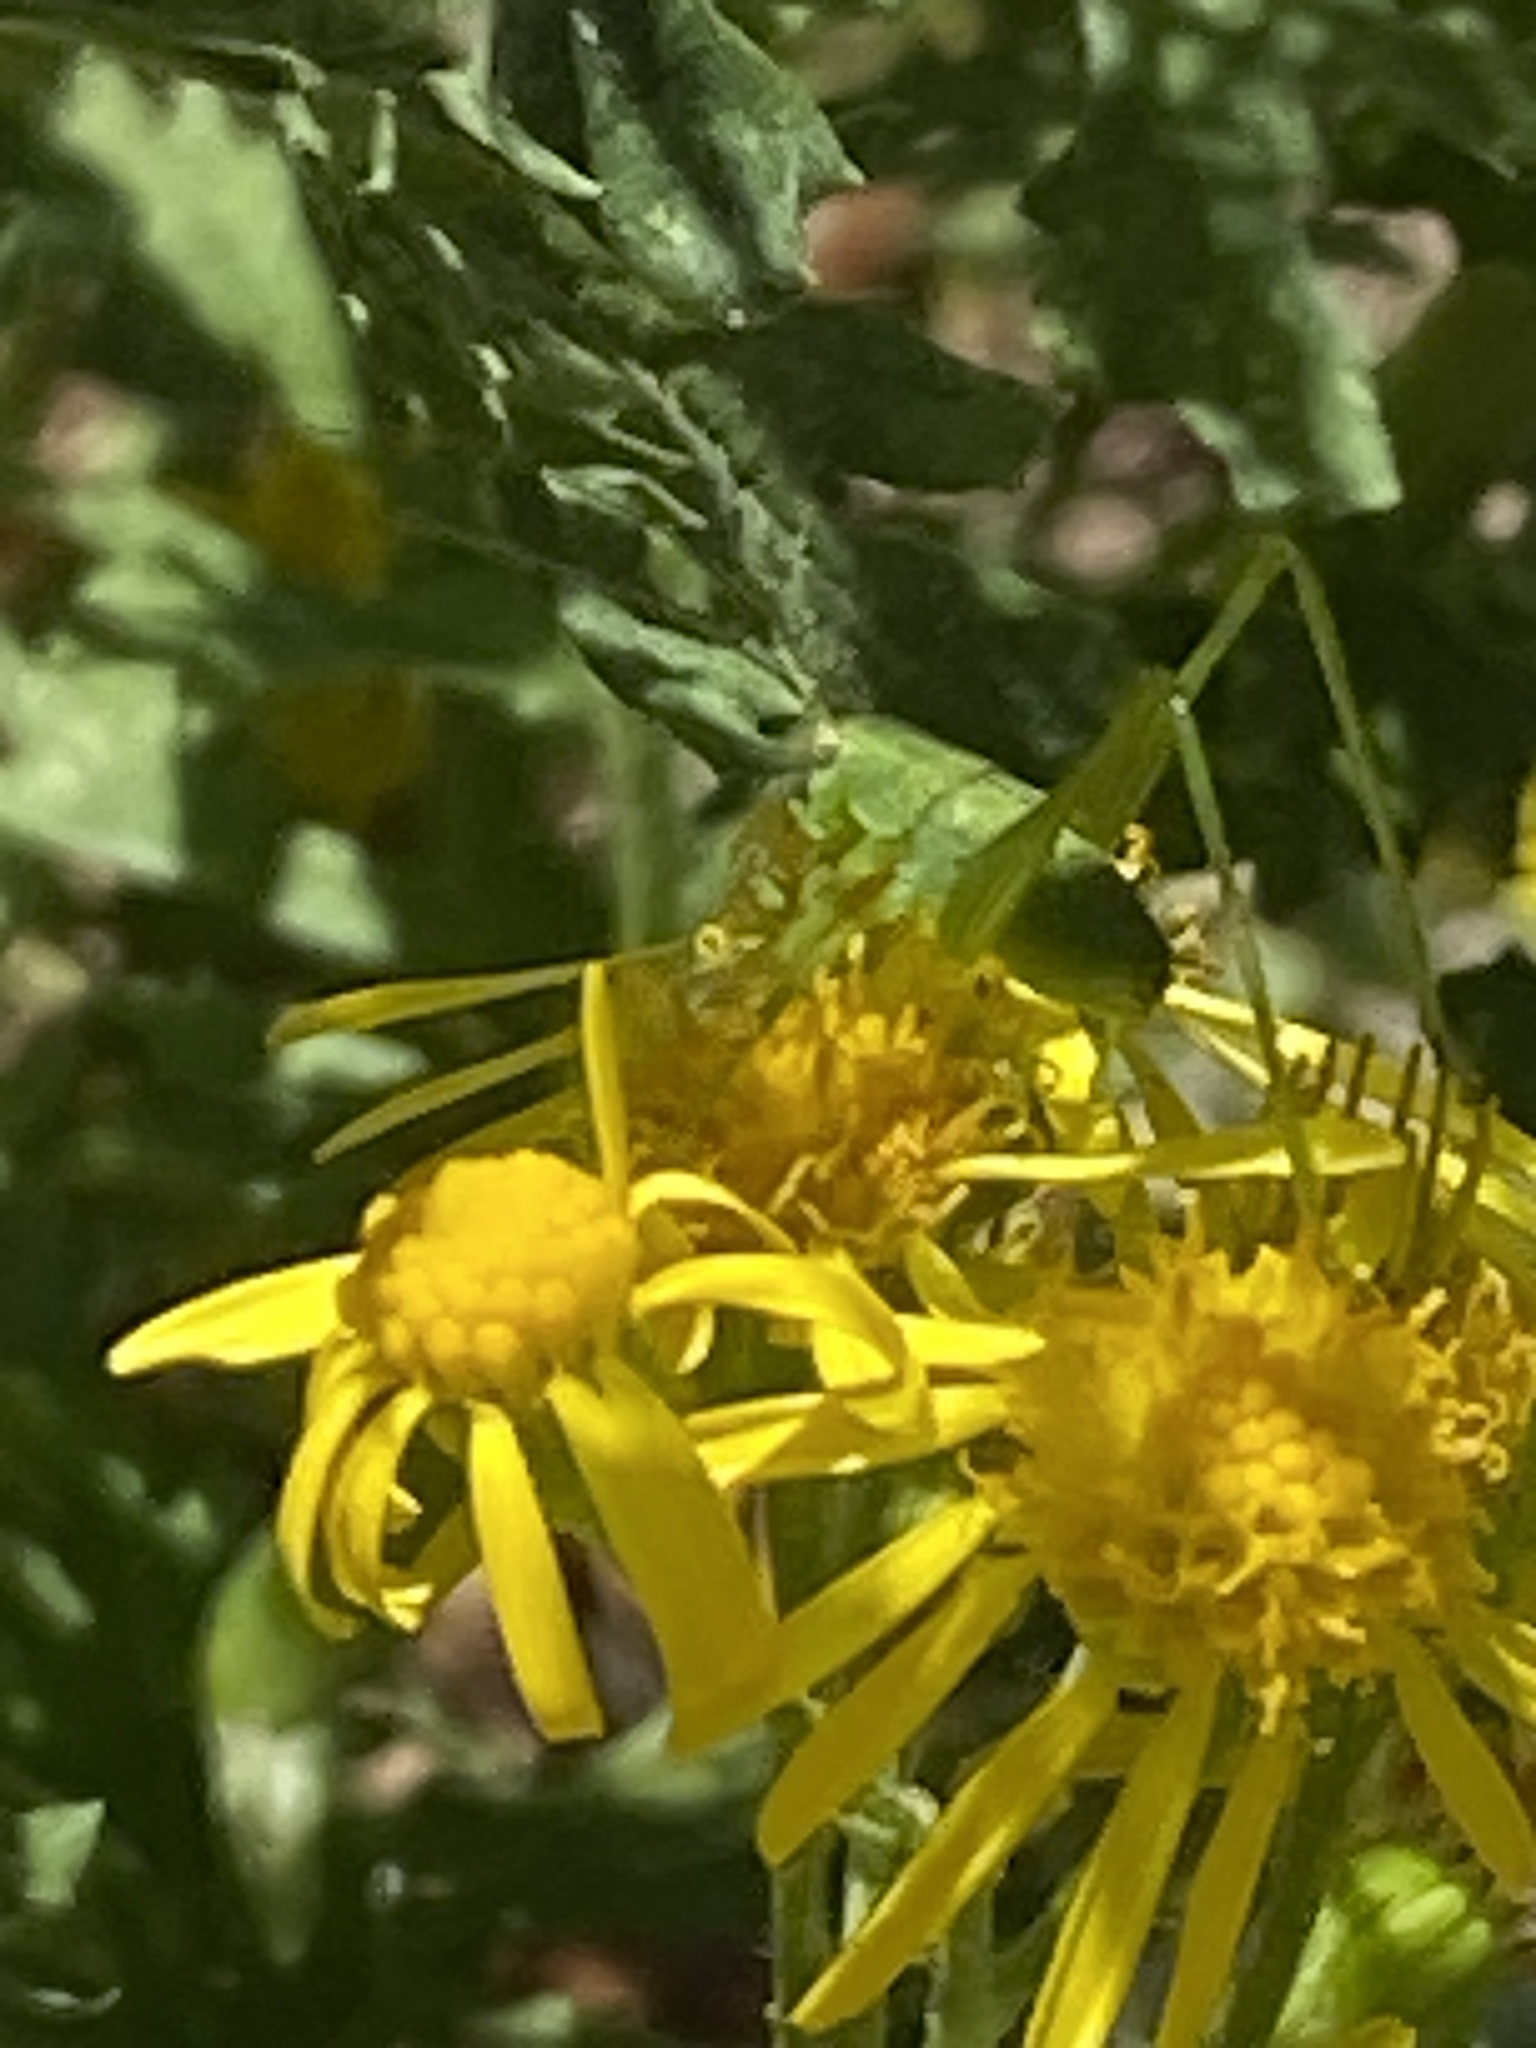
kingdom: Animalia
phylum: Arthropoda
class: Insecta
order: Orthoptera
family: Tettigoniidae
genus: Phaneroptera
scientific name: Phaneroptera nana
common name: Southern sickle bush-cricket
